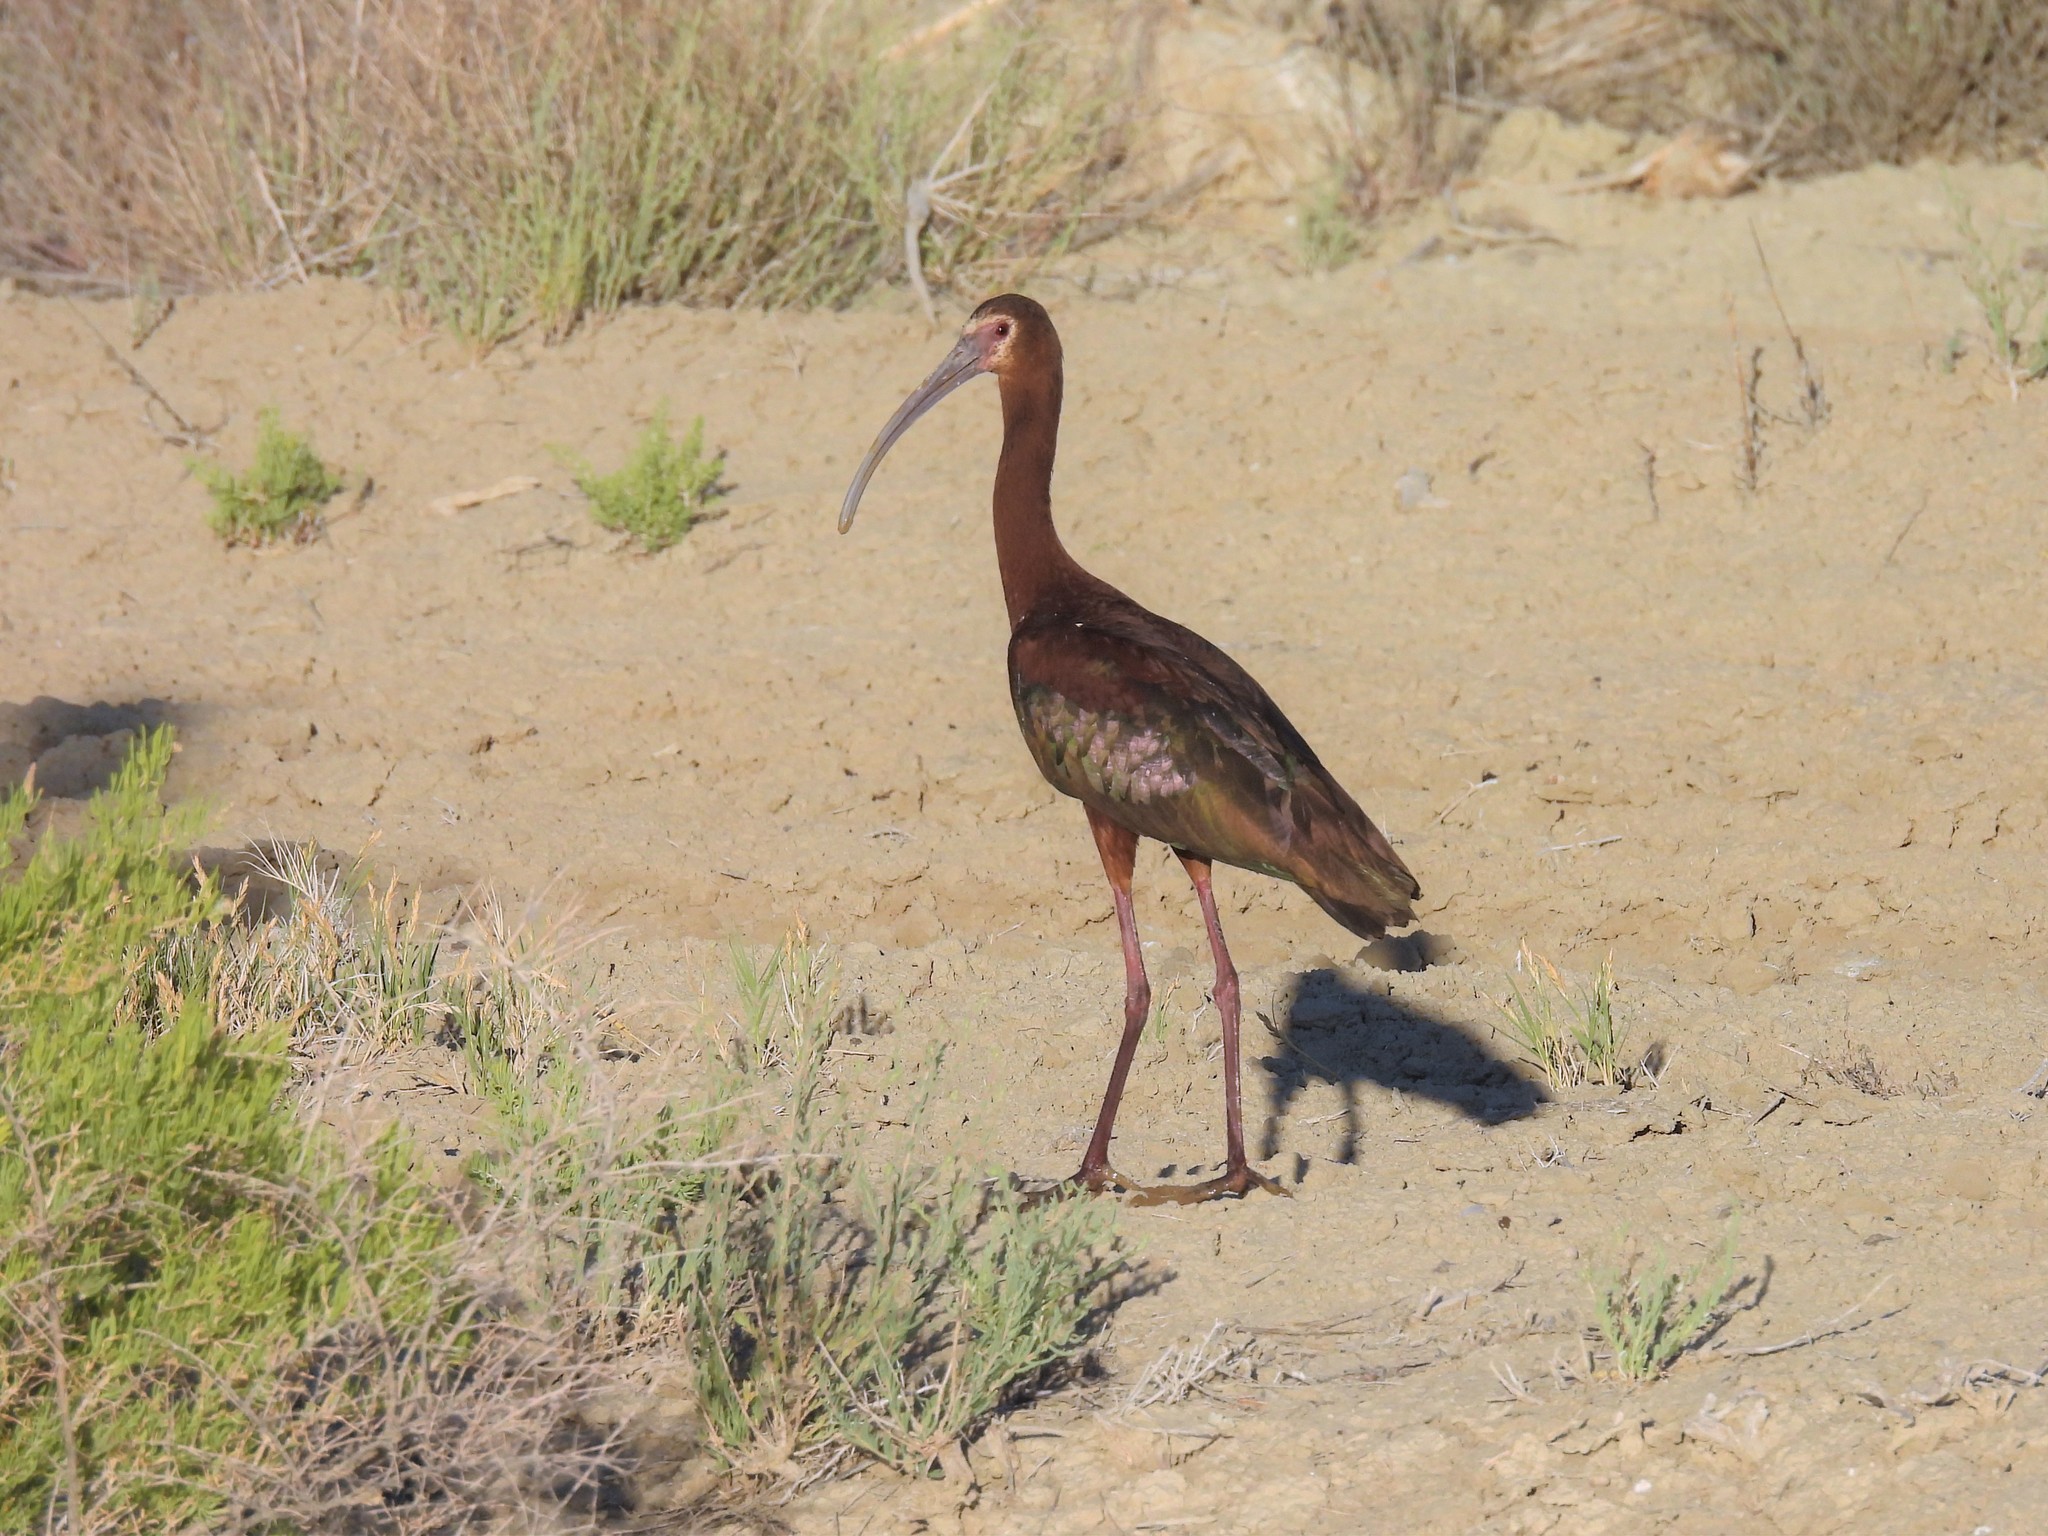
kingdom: Animalia
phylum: Chordata
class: Aves
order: Pelecaniformes
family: Threskiornithidae
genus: Plegadis
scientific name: Plegadis chihi
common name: White-faced ibis
